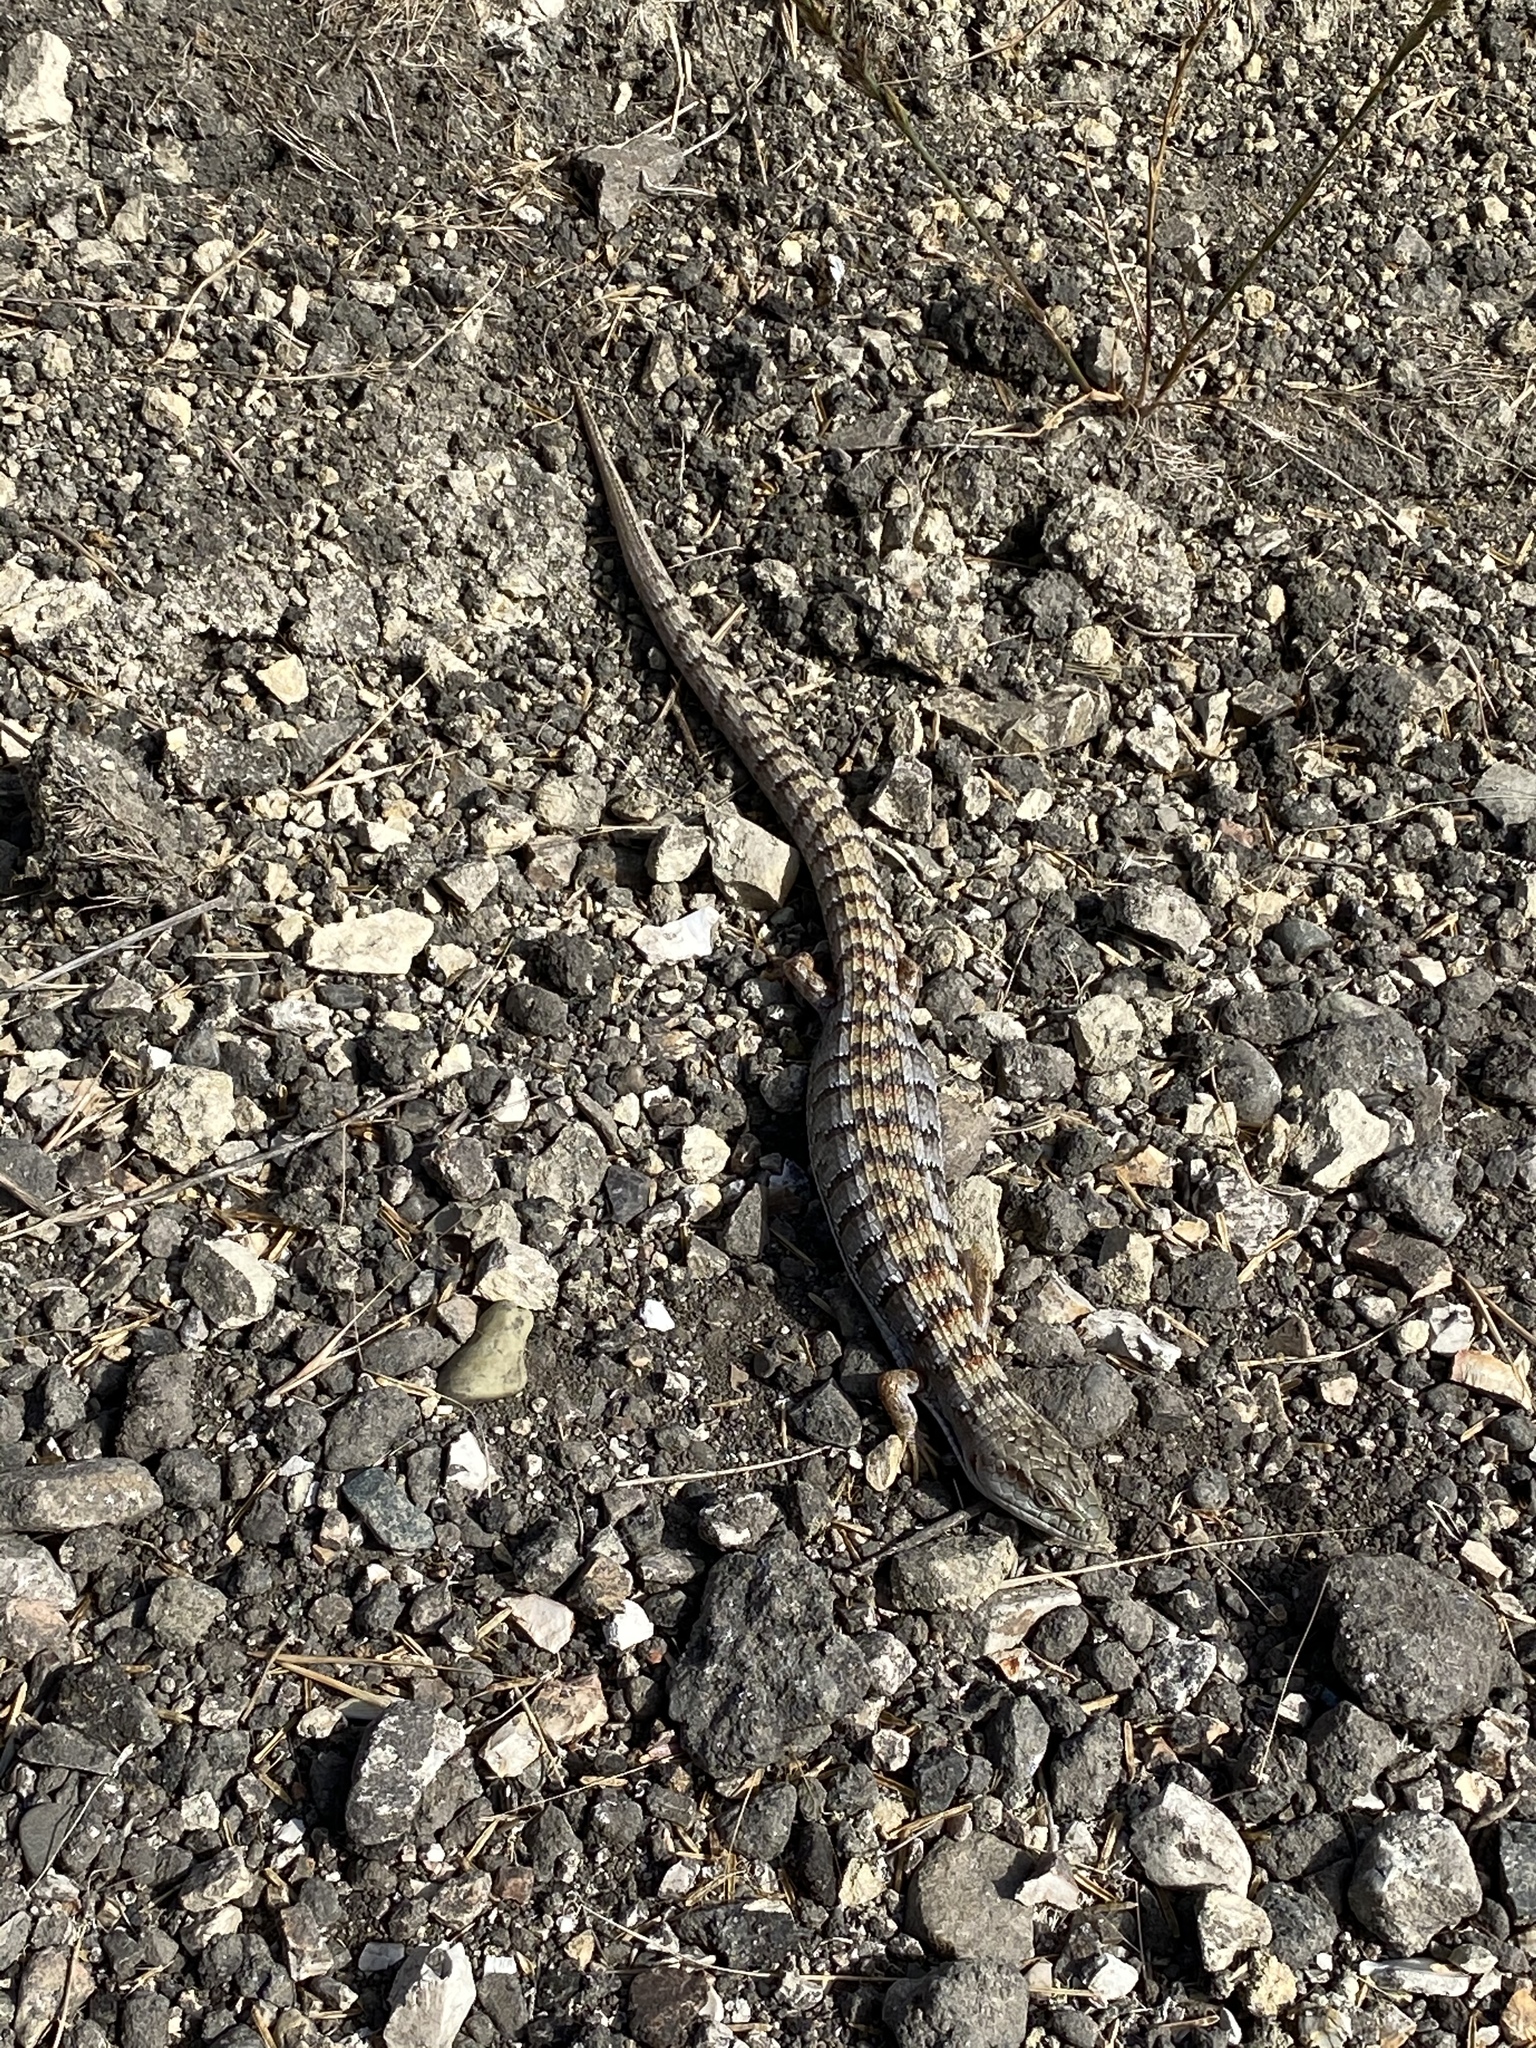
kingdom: Animalia
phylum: Chordata
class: Squamata
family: Anguidae
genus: Elgaria
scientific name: Elgaria multicarinata
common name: Southern alligator lizard
